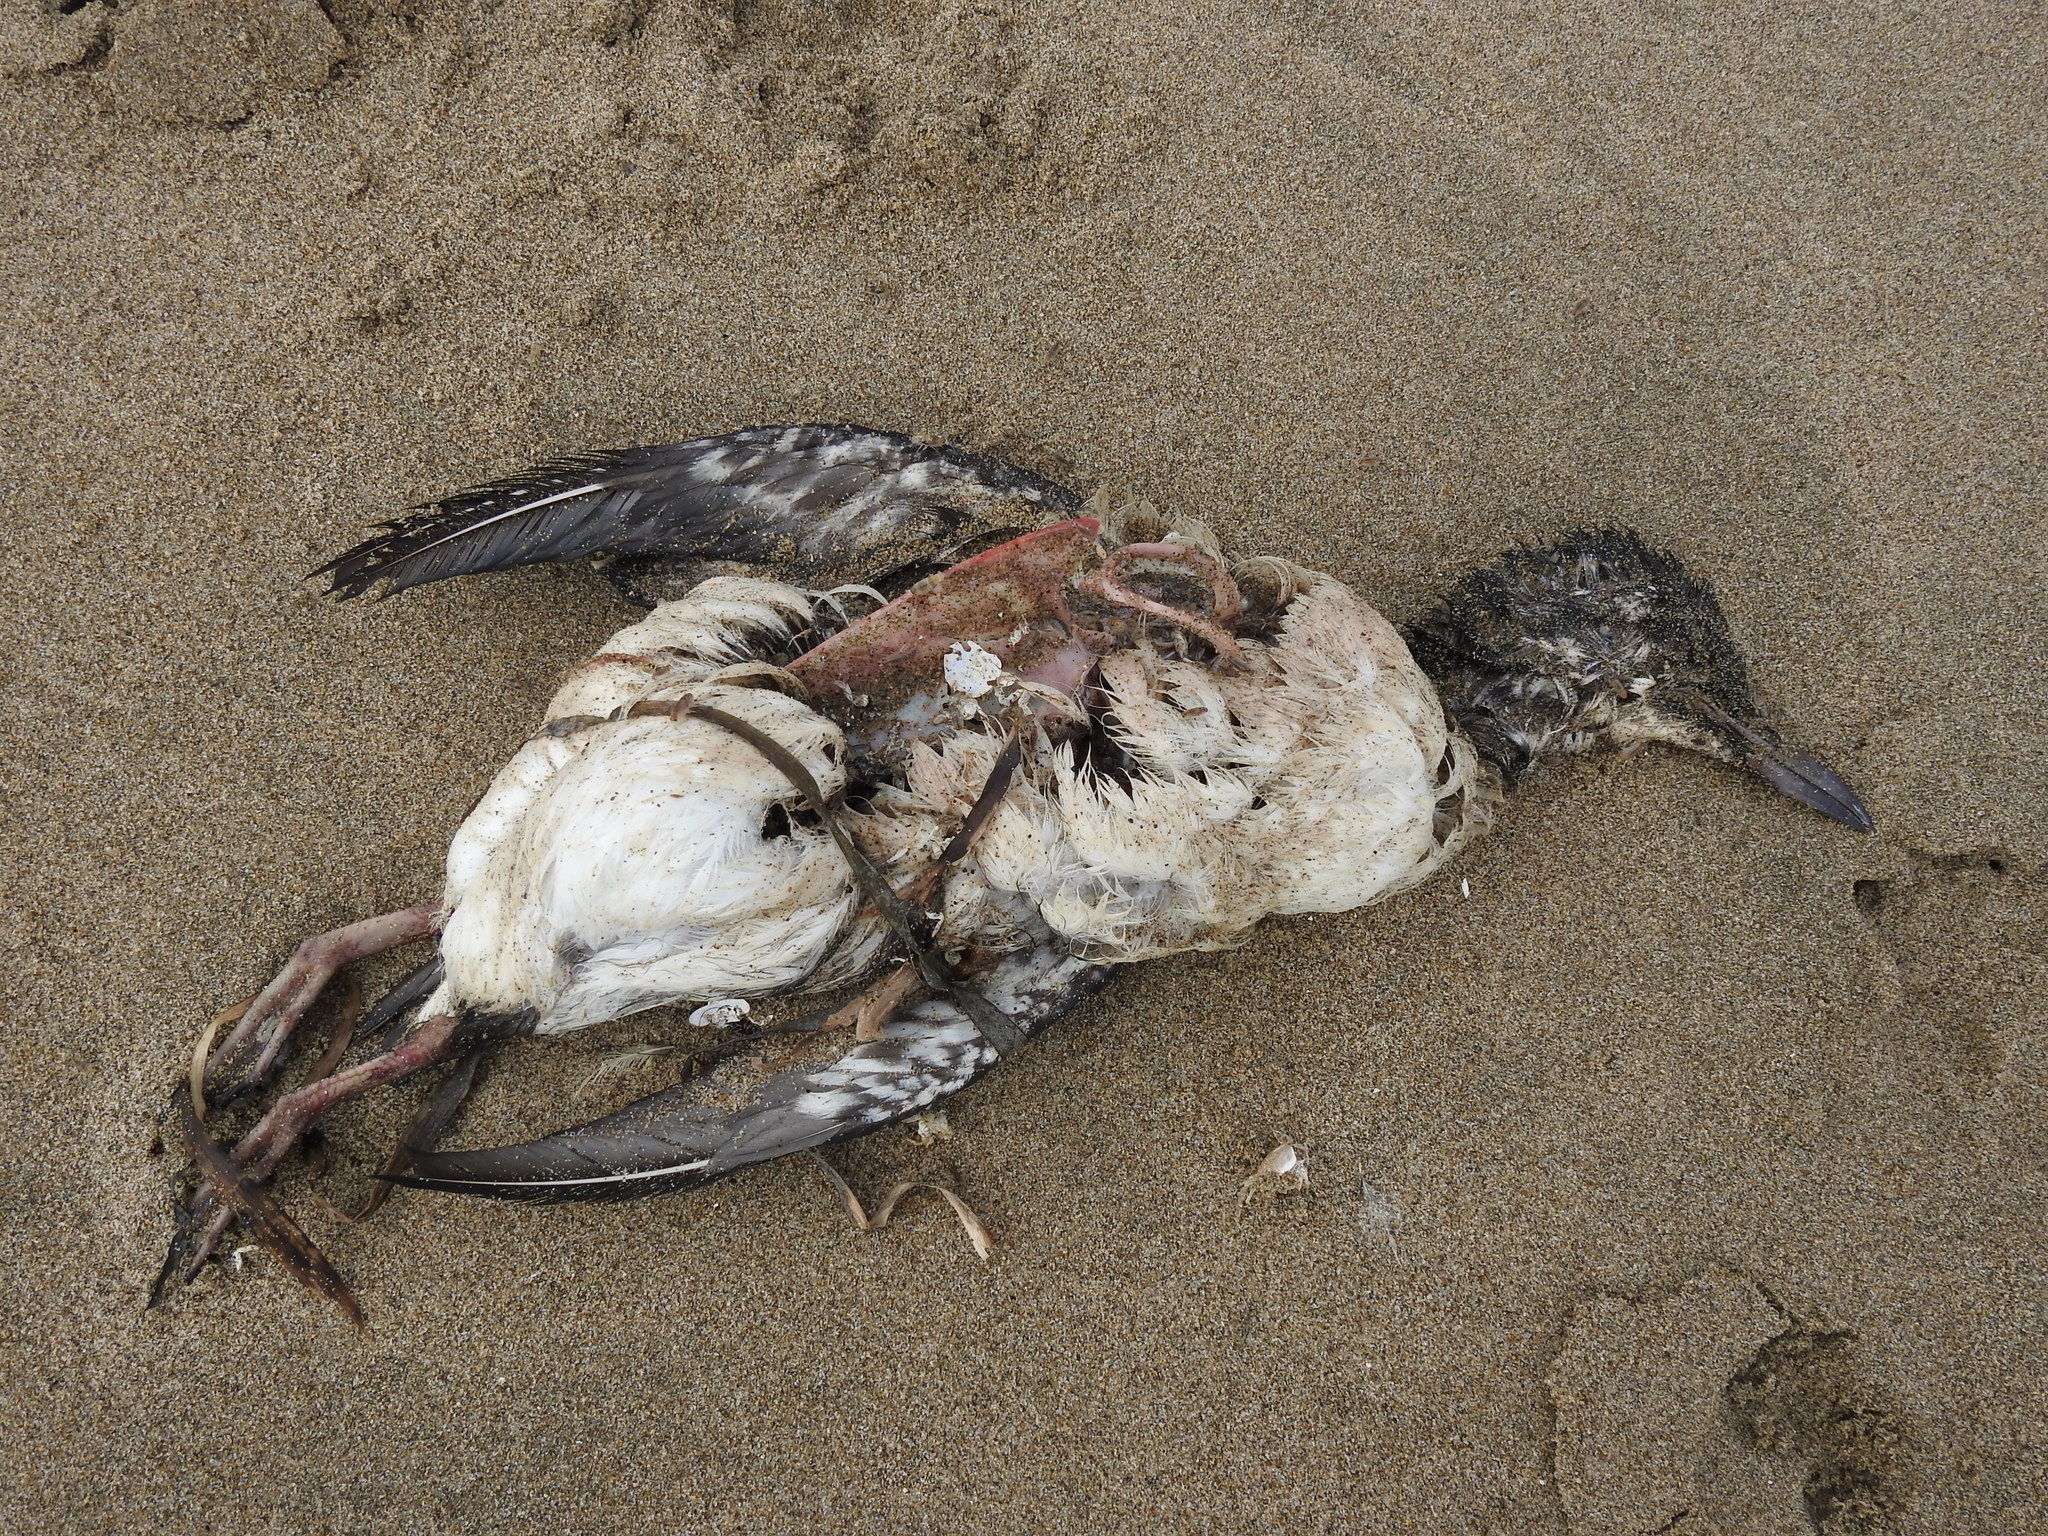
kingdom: Animalia
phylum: Chordata
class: Aves
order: Charadriiformes
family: Alcidae
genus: Uria
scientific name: Uria aalge
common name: Common murre
